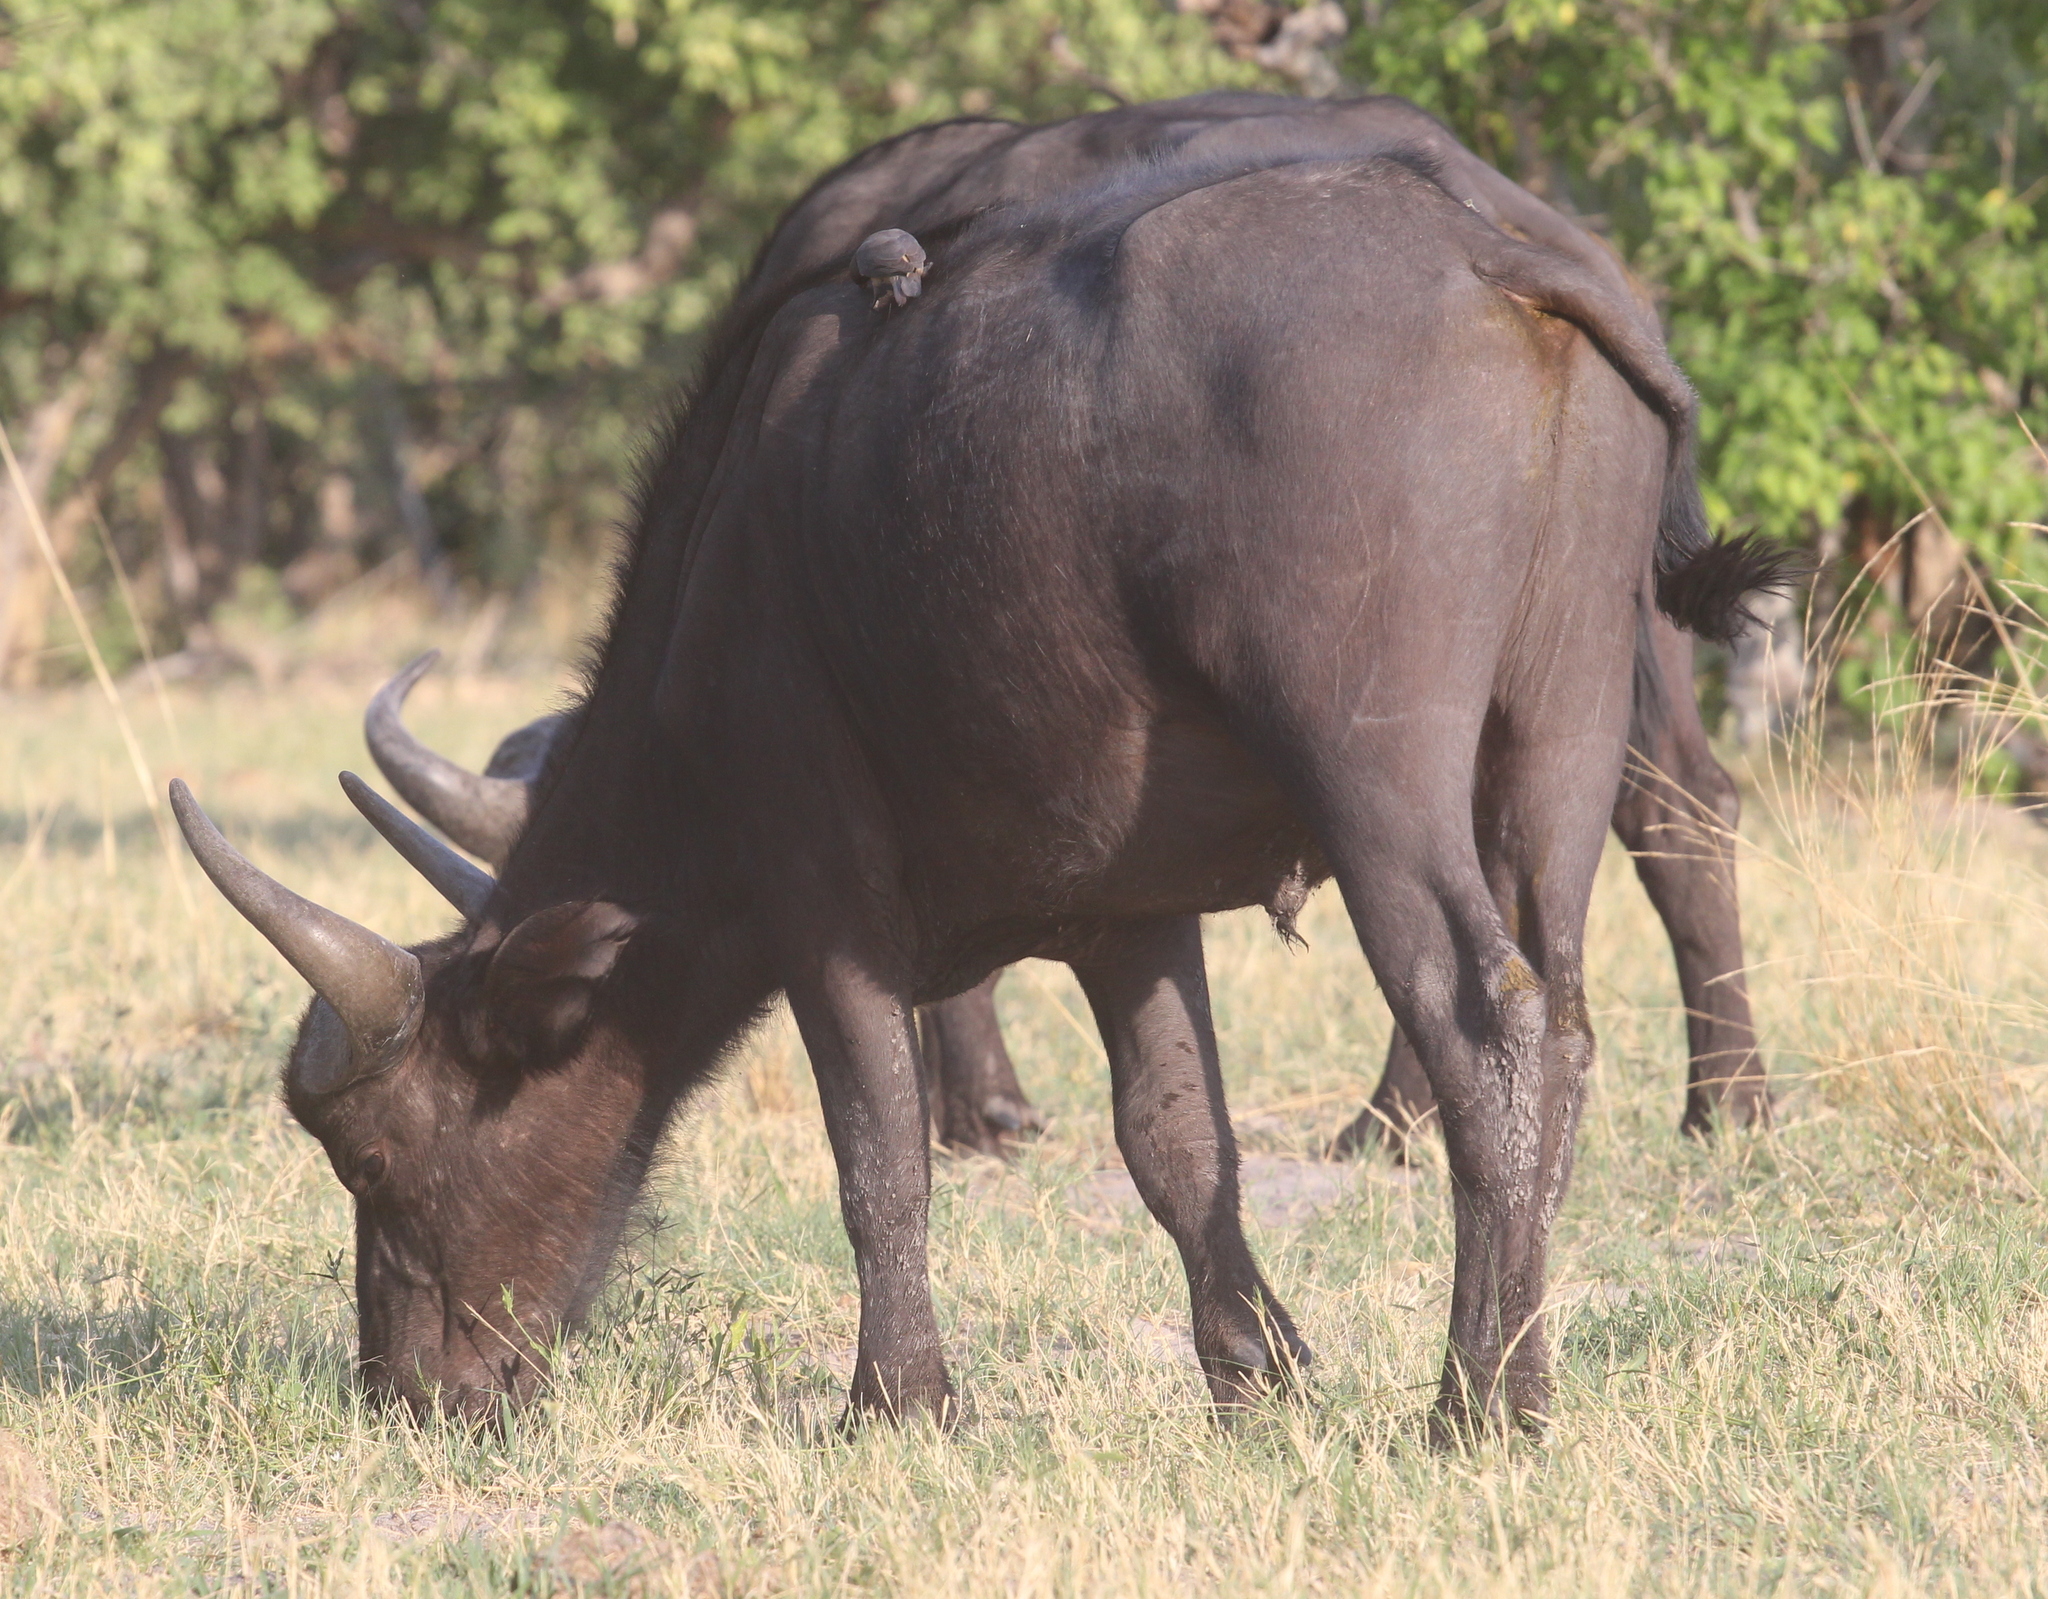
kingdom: Animalia
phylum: Chordata
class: Mammalia
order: Artiodactyla
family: Bovidae
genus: Syncerus
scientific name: Syncerus caffer
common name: African buffalo
